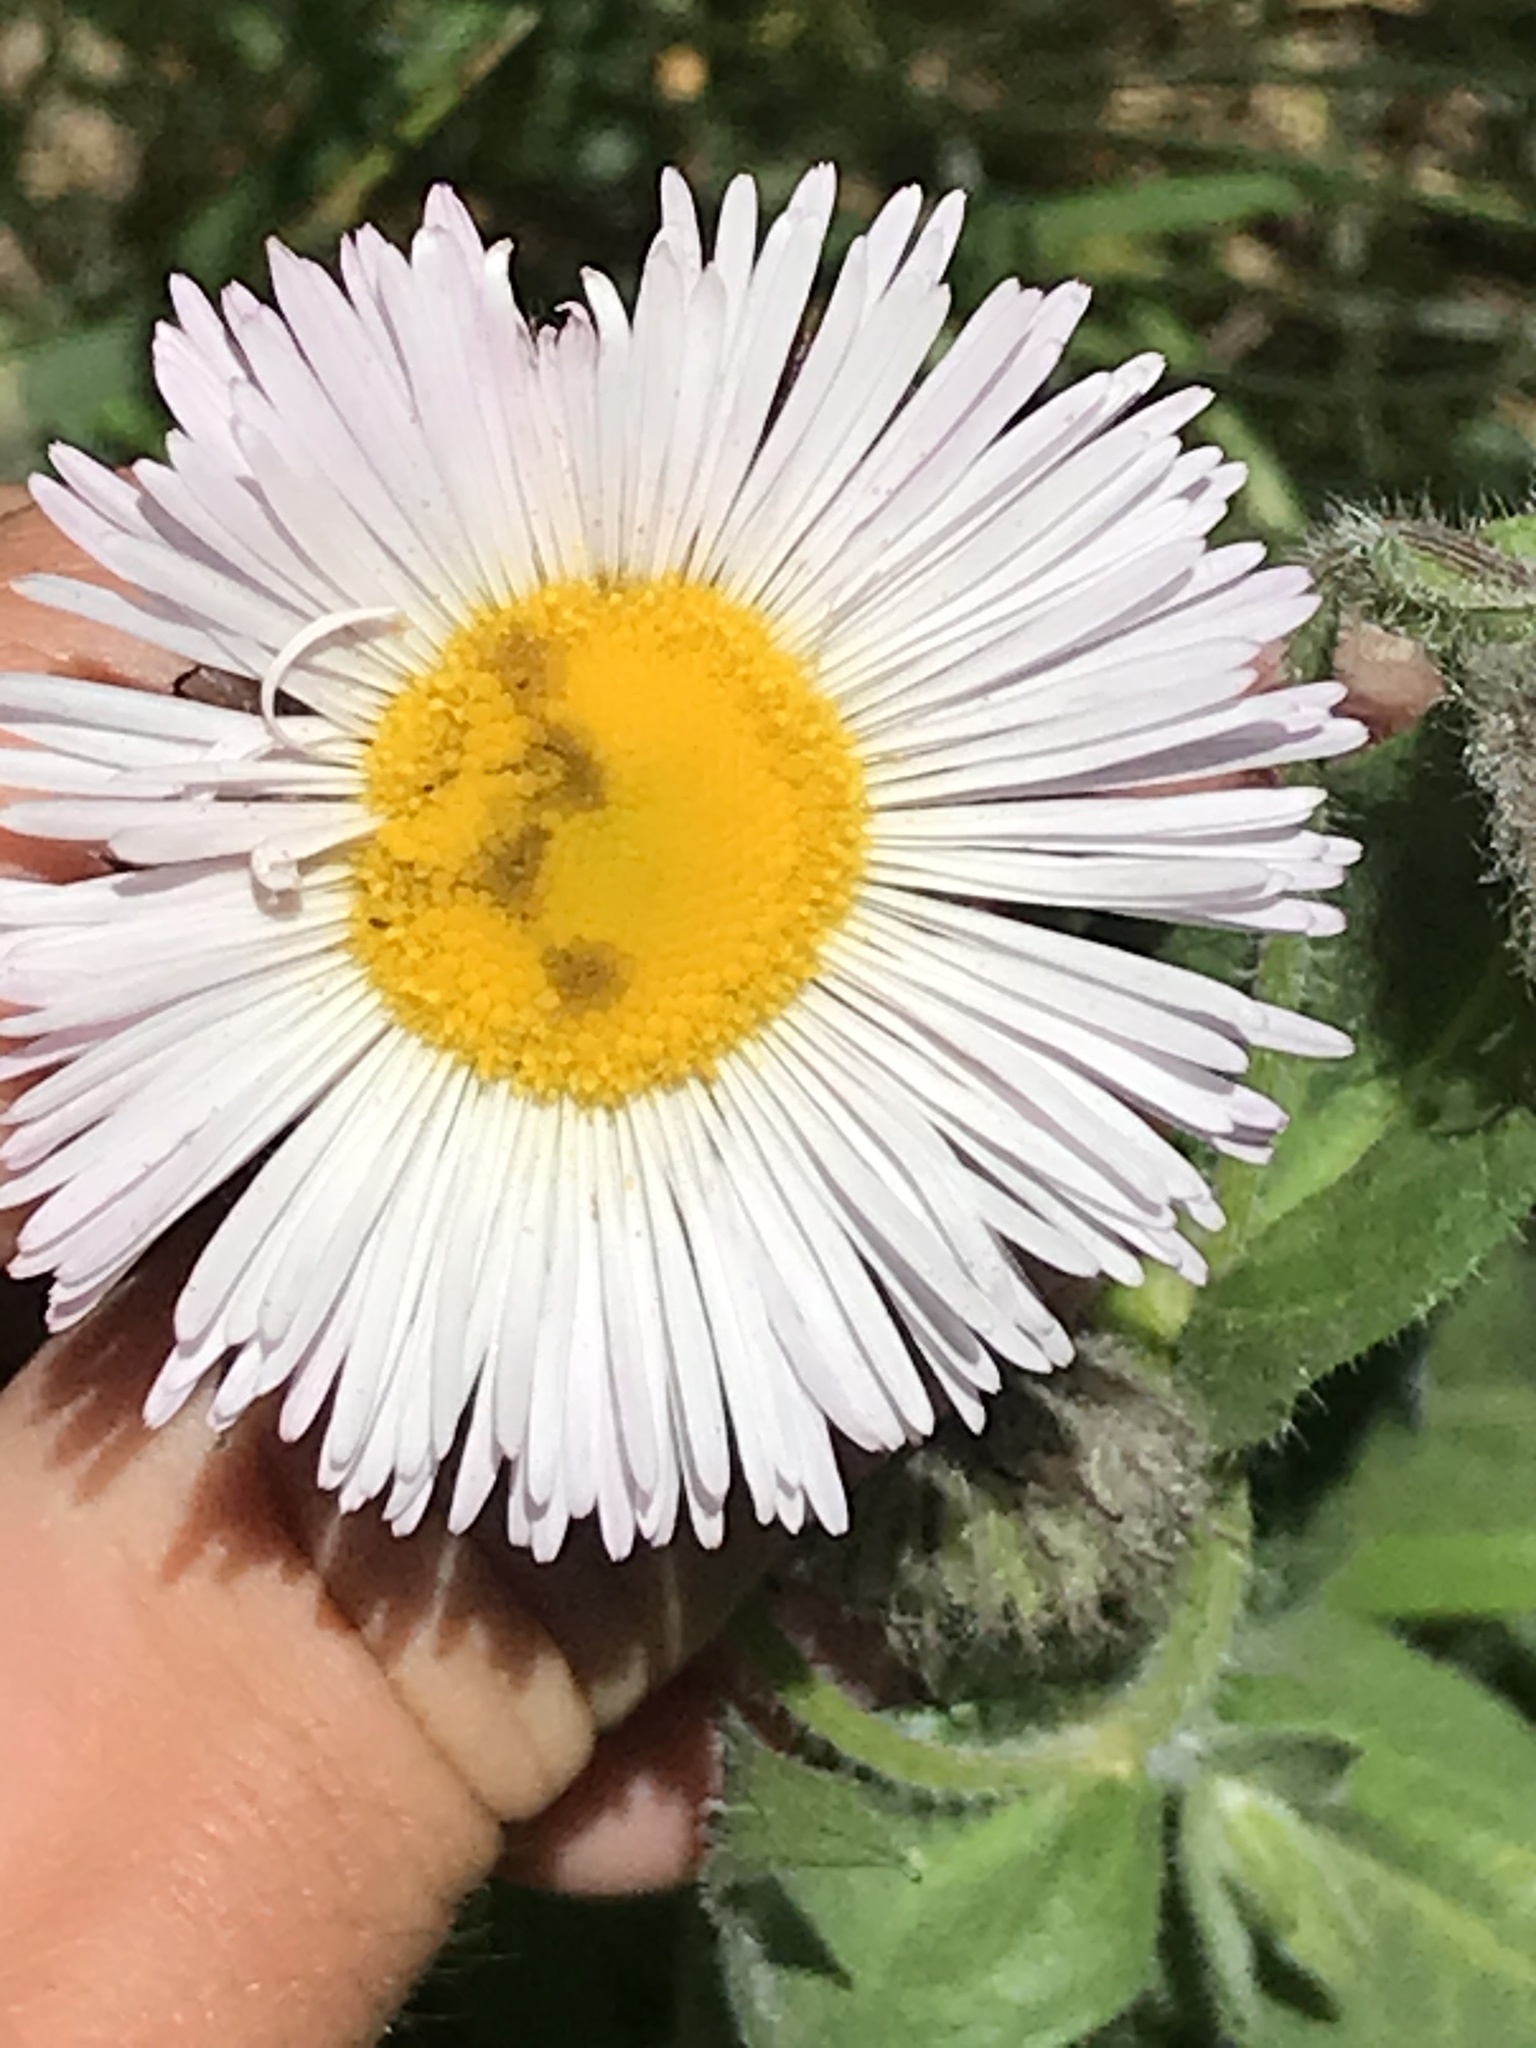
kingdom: Plantae
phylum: Tracheophyta
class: Magnoliopsida
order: Asterales
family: Asteraceae
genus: Erigeron
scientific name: Erigeron elatior
